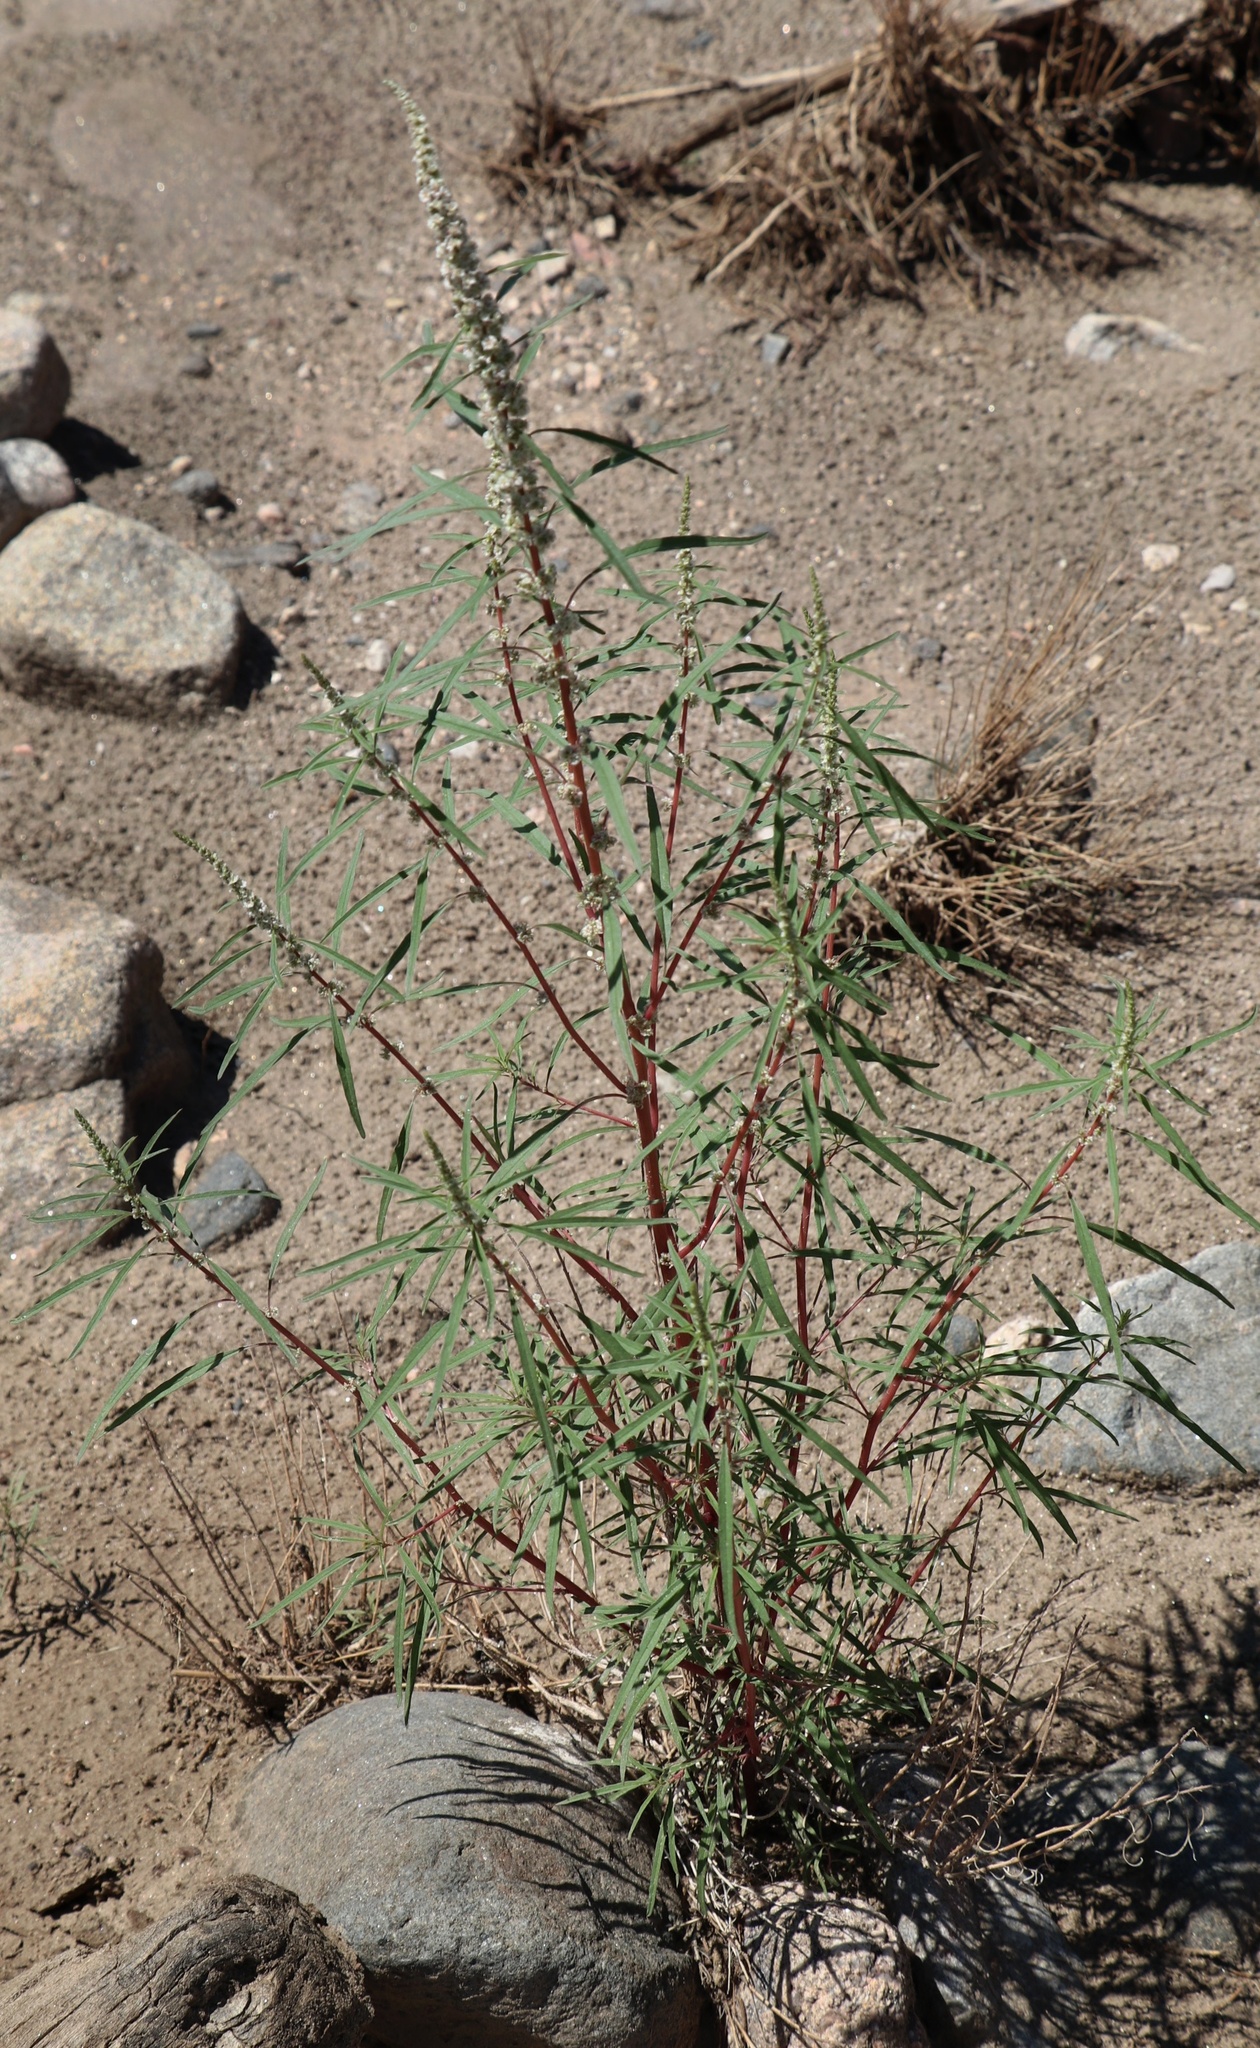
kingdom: Plantae
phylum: Tracheophyta
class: Magnoliopsida
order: Caryophyllales
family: Amaranthaceae
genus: Amaranthus
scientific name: Amaranthus fimbriatus
